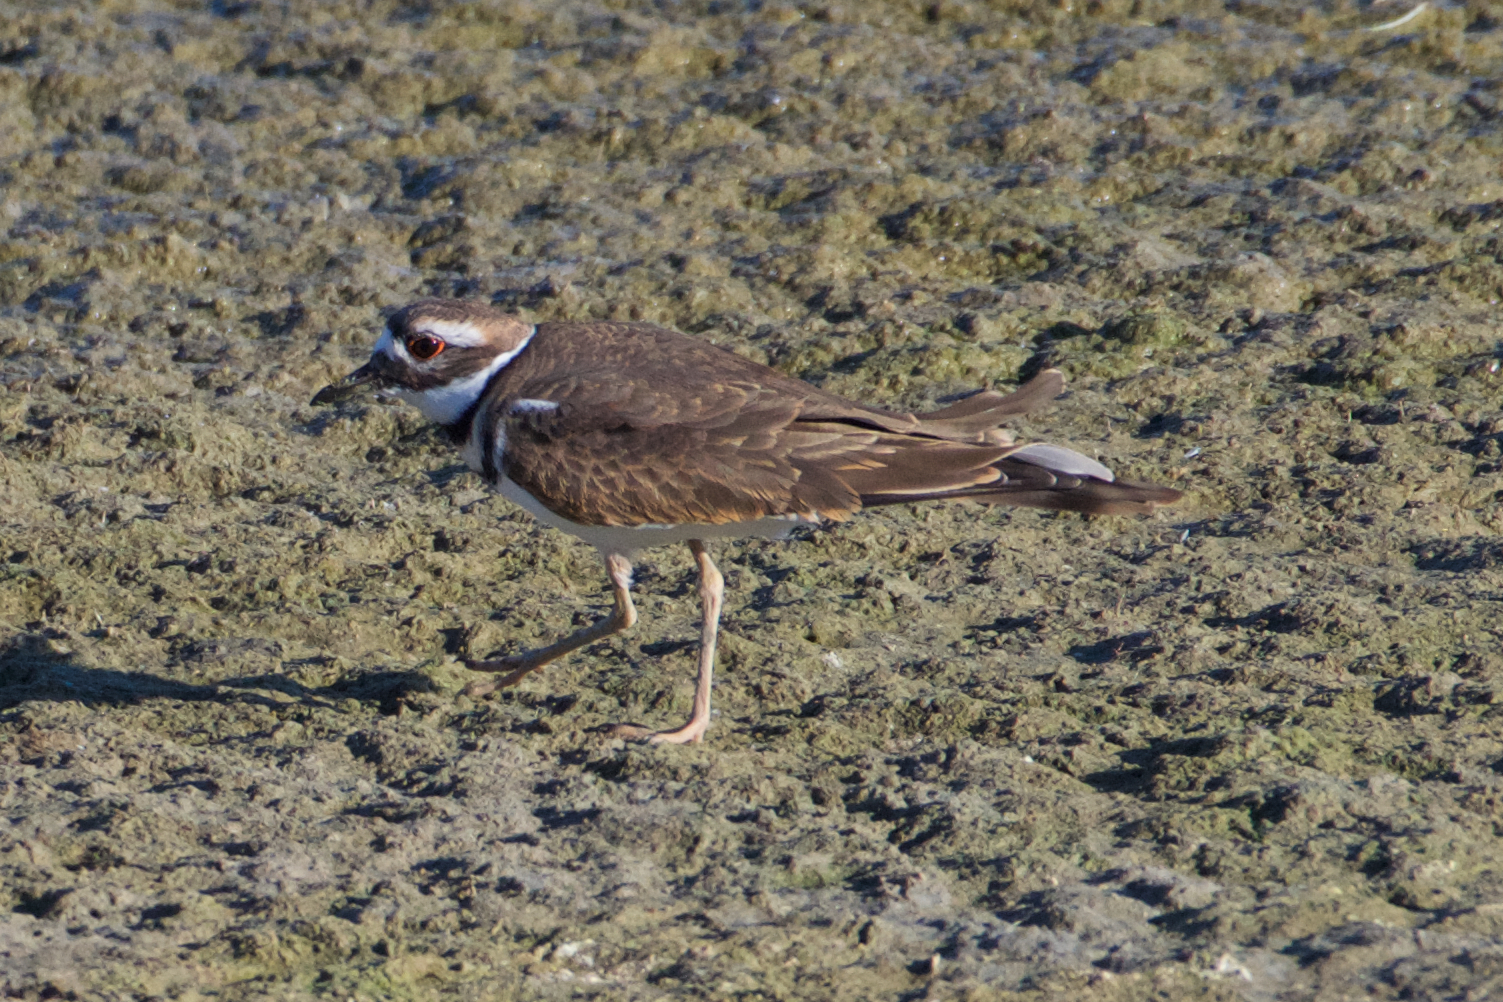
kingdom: Animalia
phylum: Chordata
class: Aves
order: Charadriiformes
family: Charadriidae
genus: Charadrius
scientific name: Charadrius vociferus
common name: Killdeer
